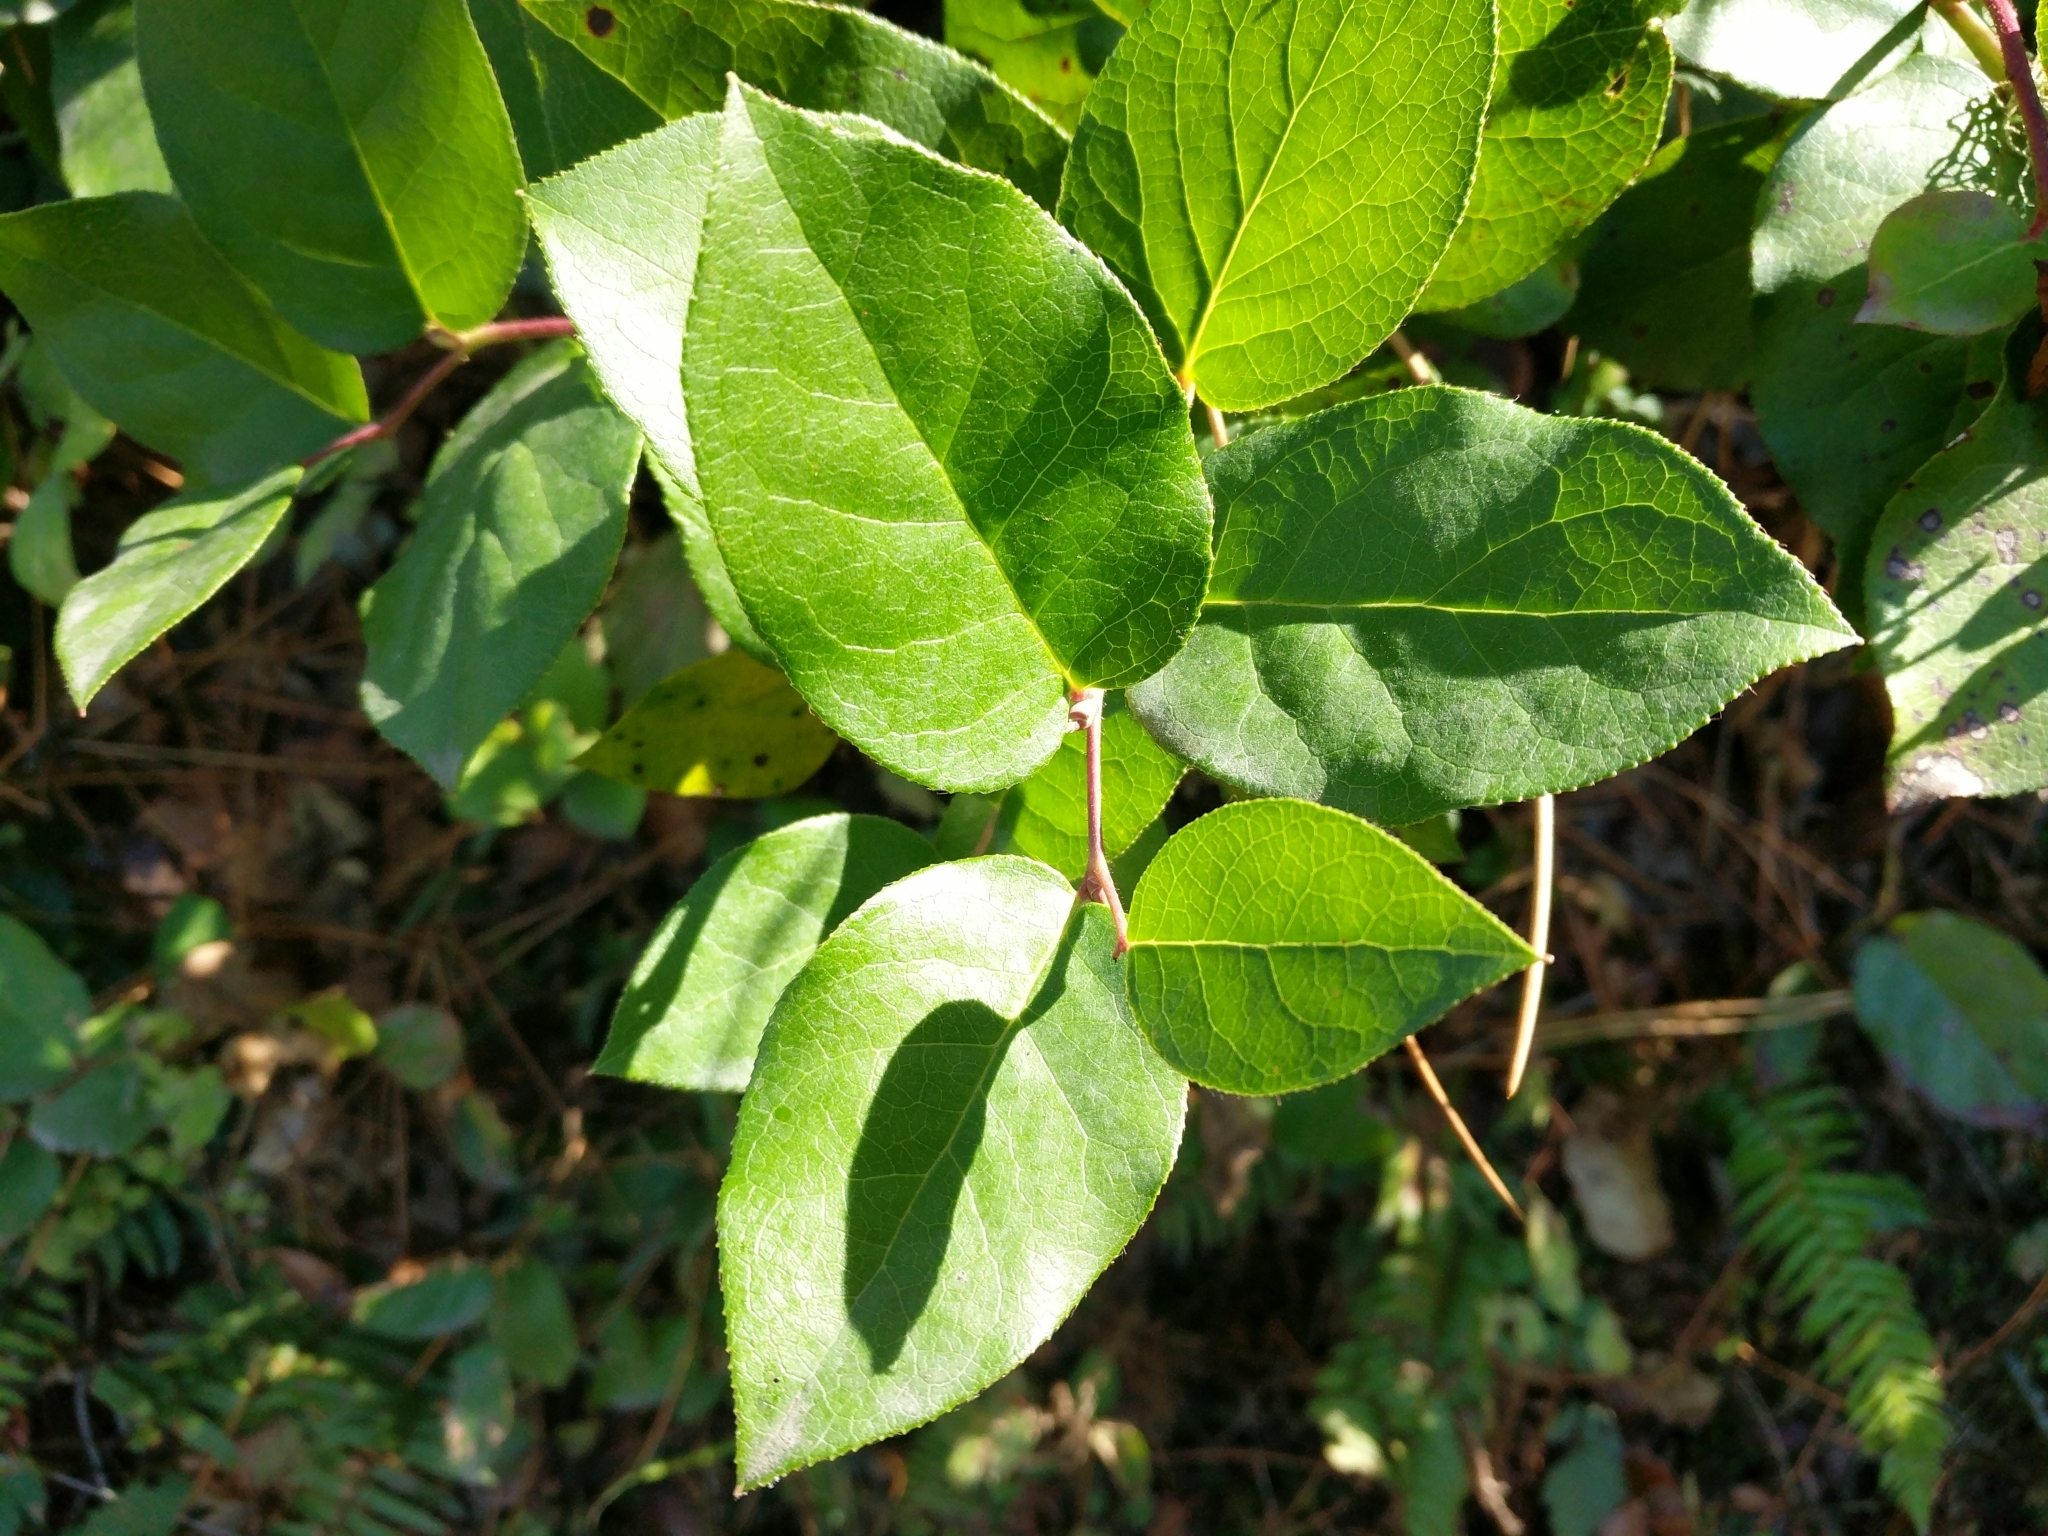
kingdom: Plantae
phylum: Tracheophyta
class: Magnoliopsida
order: Ericales
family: Ericaceae
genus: Gaultheria
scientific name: Gaultheria shallon
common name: Shallon
